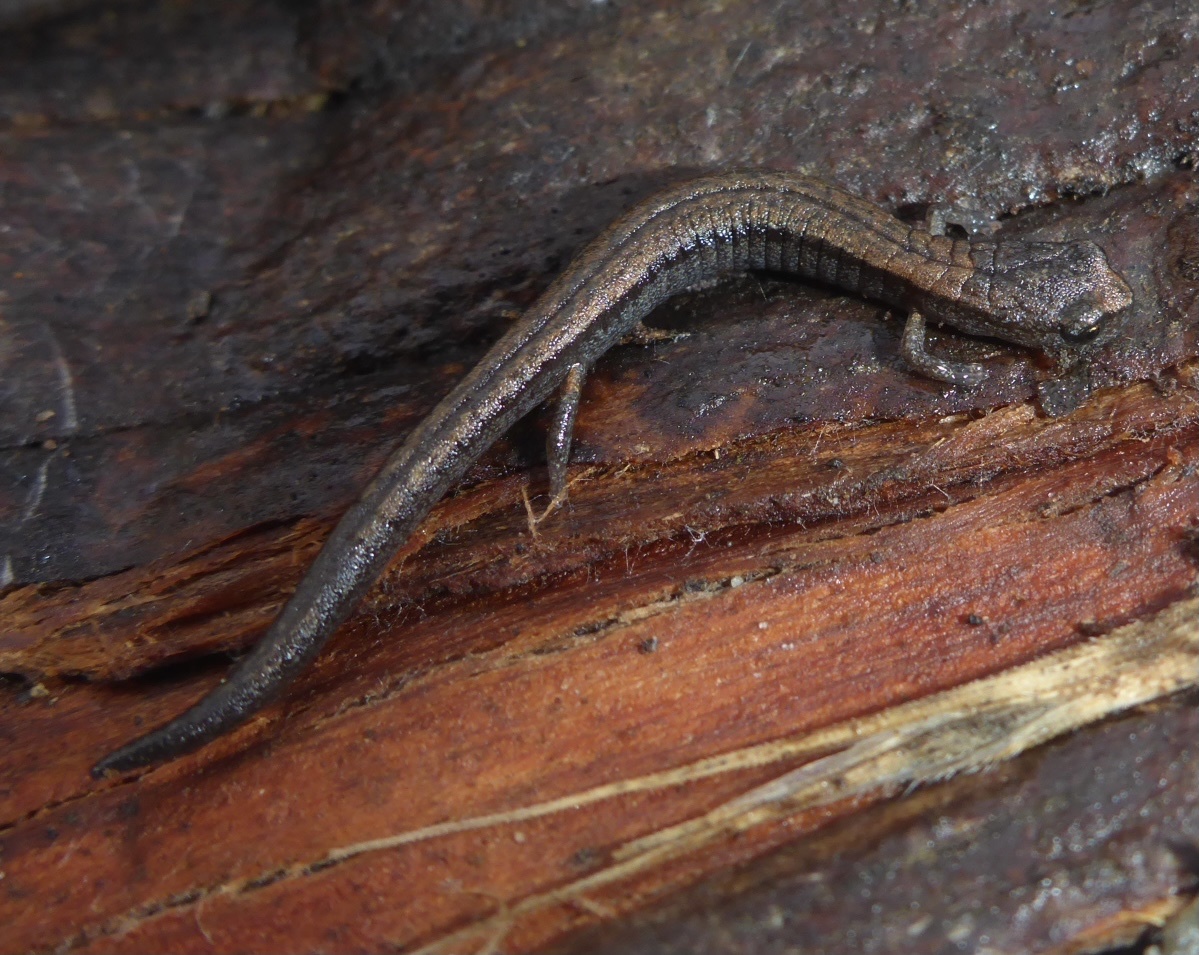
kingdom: Animalia
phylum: Chordata
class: Amphibia
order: Caudata
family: Plethodontidae
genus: Batrachoseps
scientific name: Batrachoseps attenuatus
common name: California slender salamander
